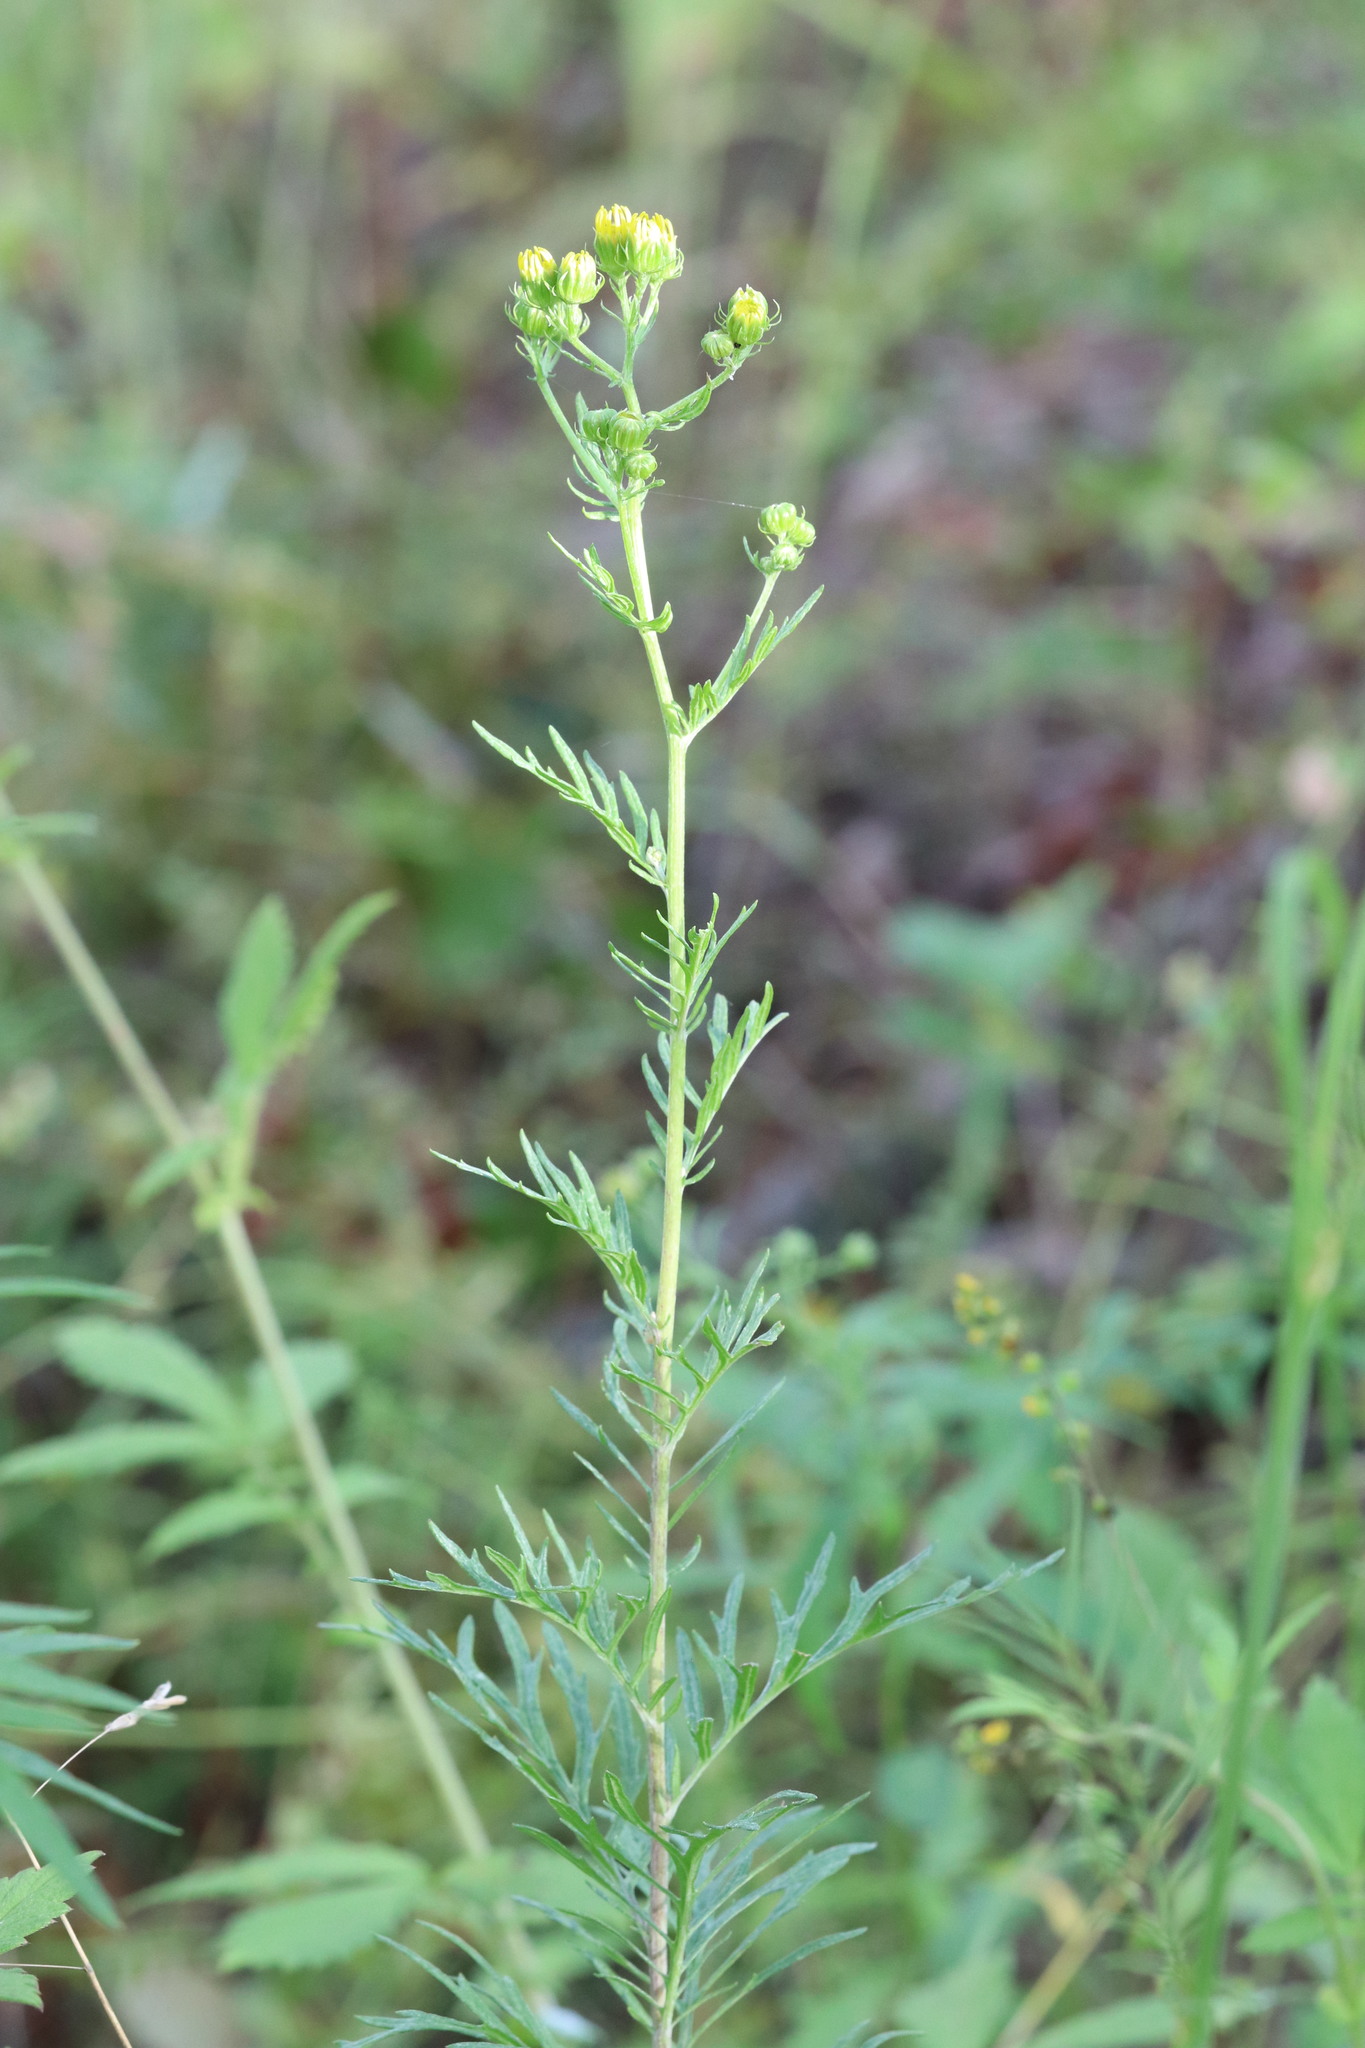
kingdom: Plantae
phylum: Tracheophyta
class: Magnoliopsida
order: Asterales
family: Asteraceae
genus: Jacobaea
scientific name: Jacobaea erucifolia
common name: Hoary ragwort
